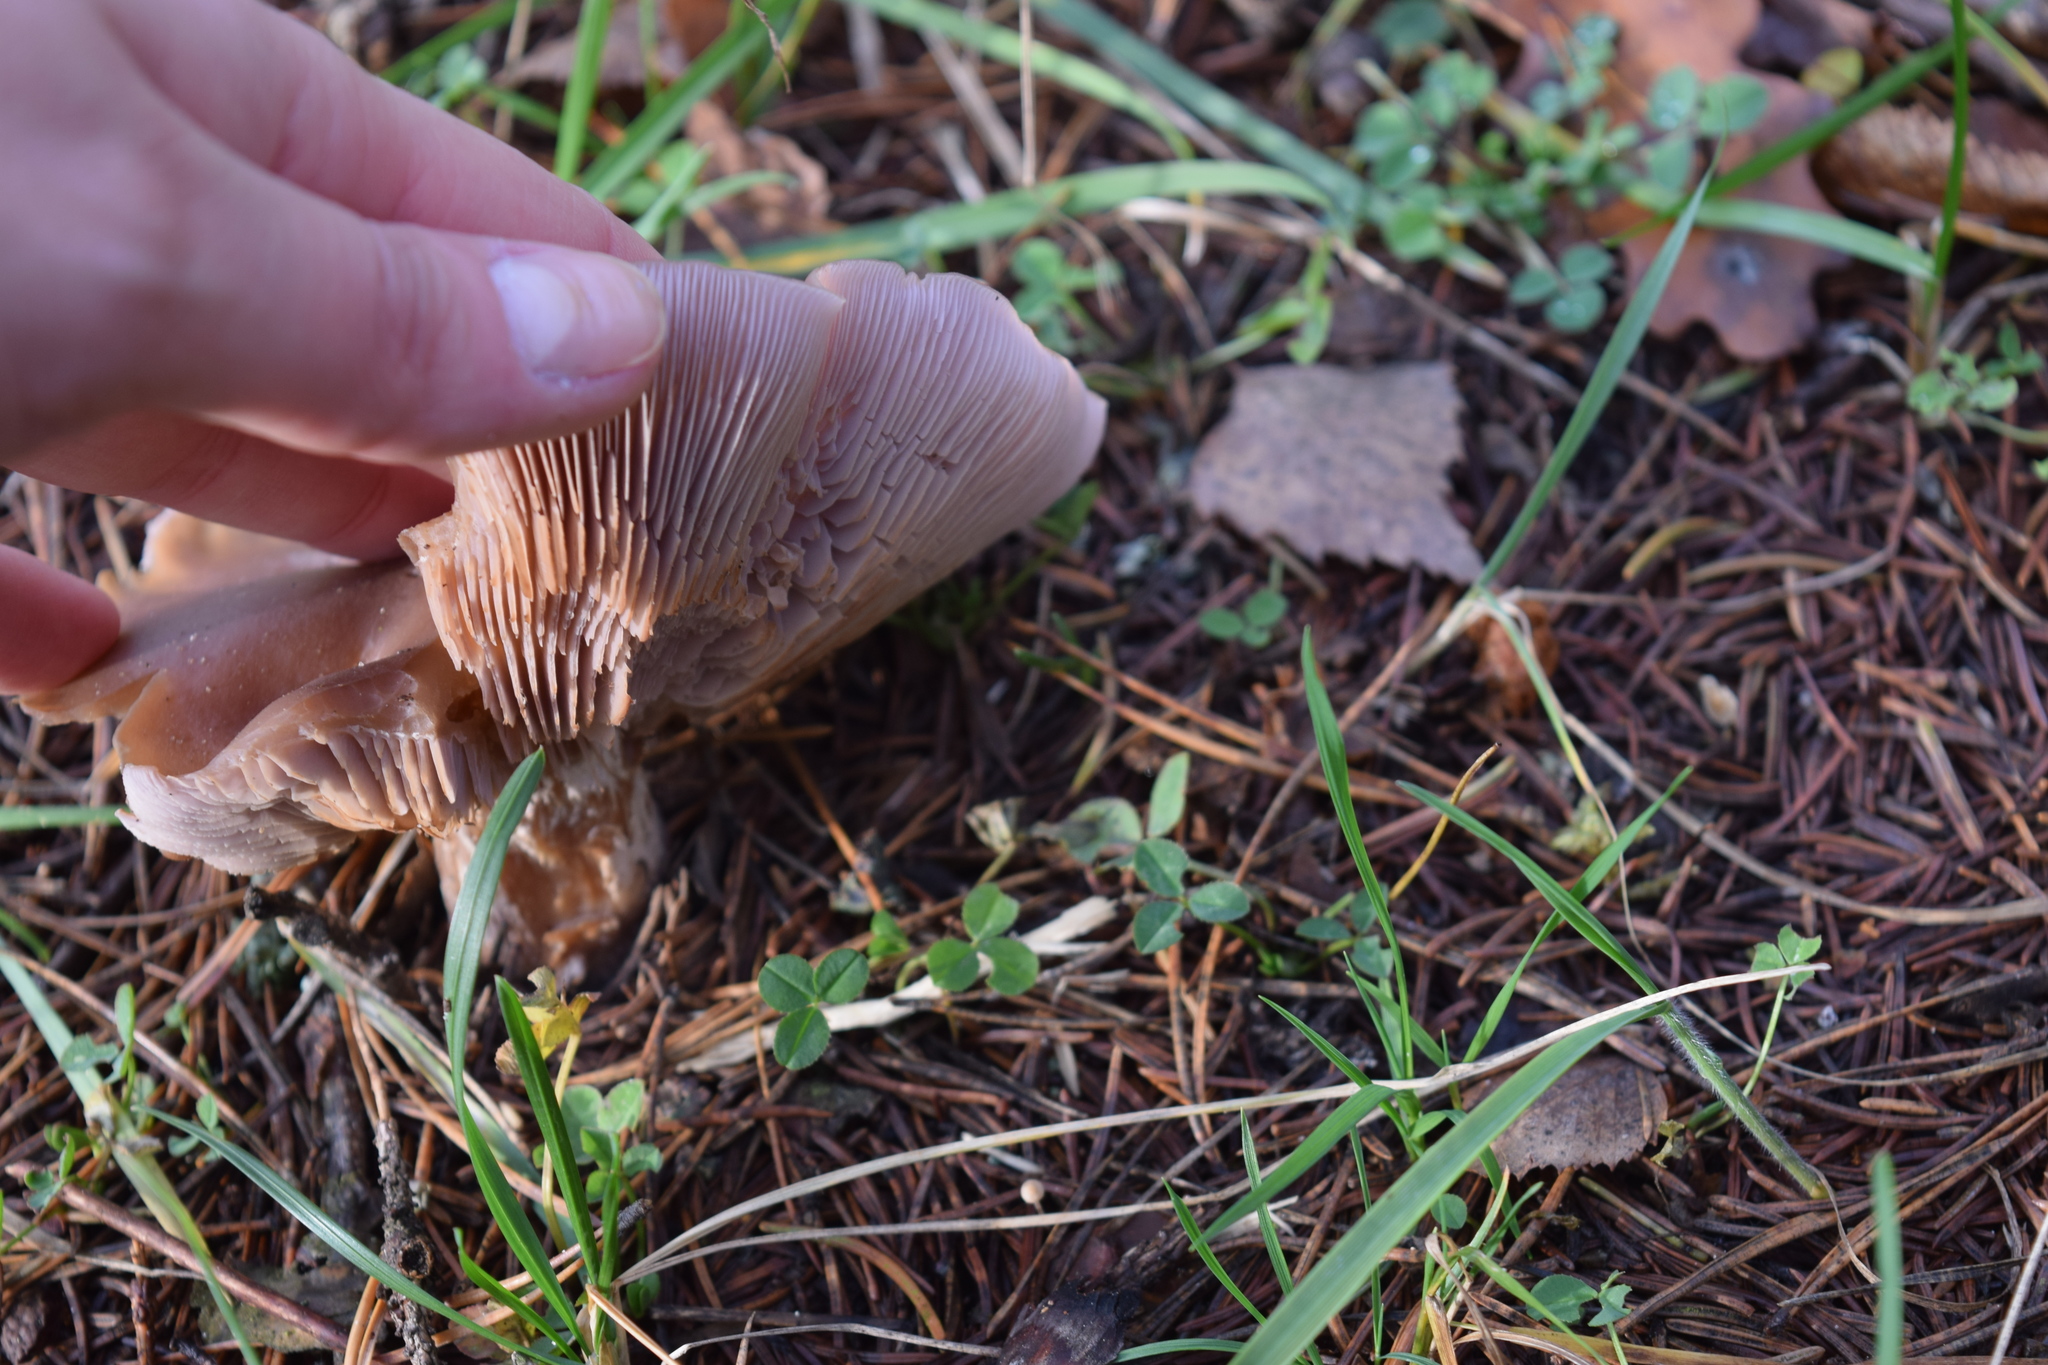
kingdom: Fungi
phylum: Basidiomycota
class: Agaricomycetes
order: Agaricales
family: Tricholomataceae
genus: Collybia
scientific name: Collybia
